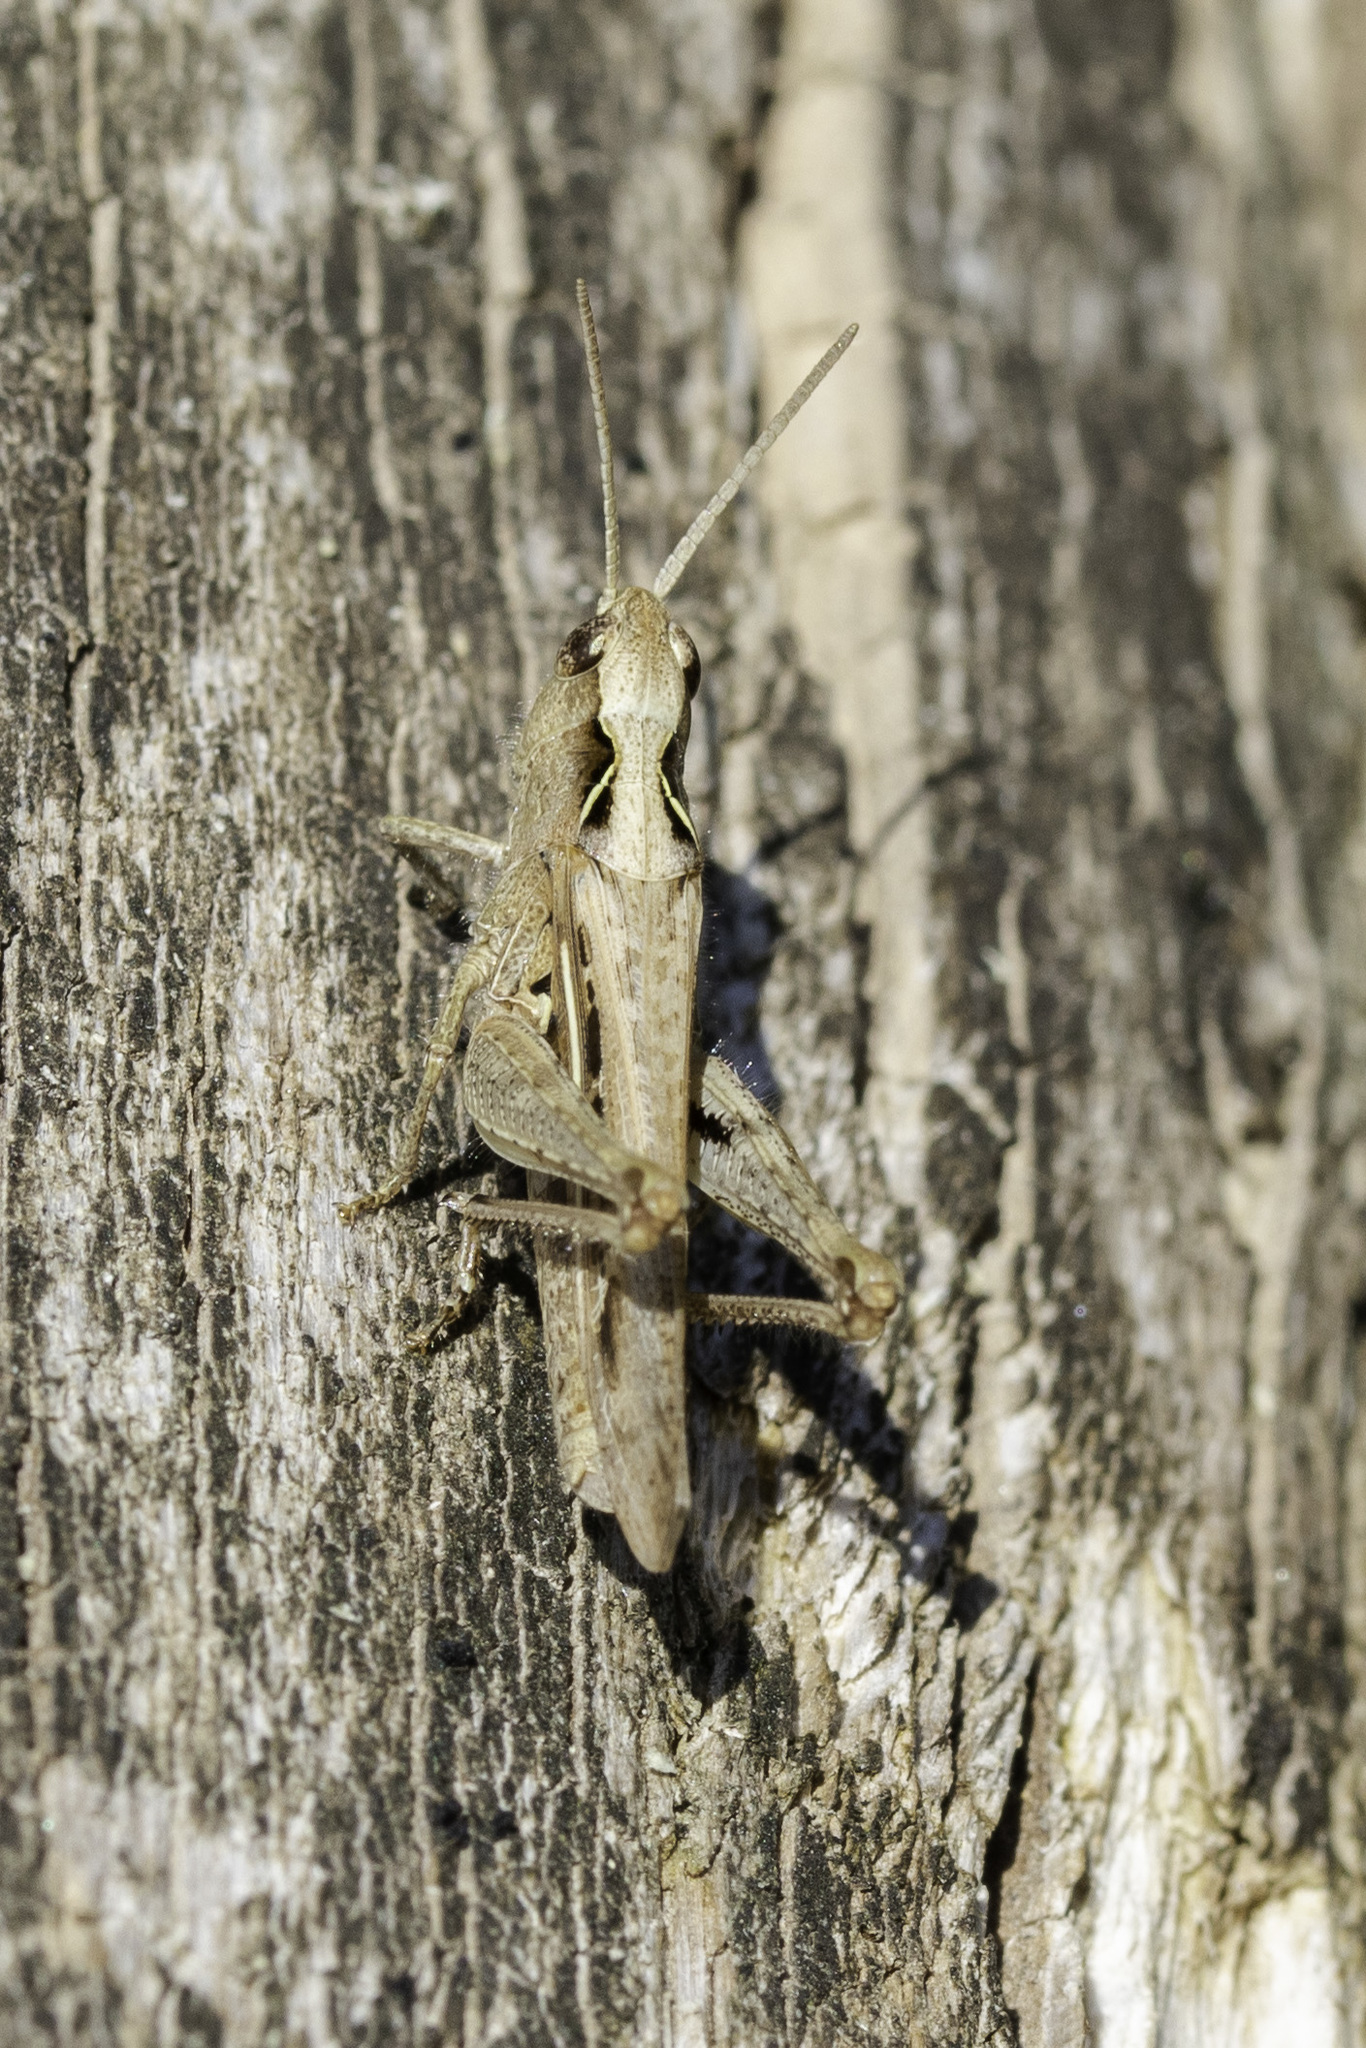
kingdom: Animalia
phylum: Arthropoda
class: Insecta
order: Orthoptera
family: Acrididae
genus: Chorthippus
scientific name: Chorthippus brunneus
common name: Field grasshopper
